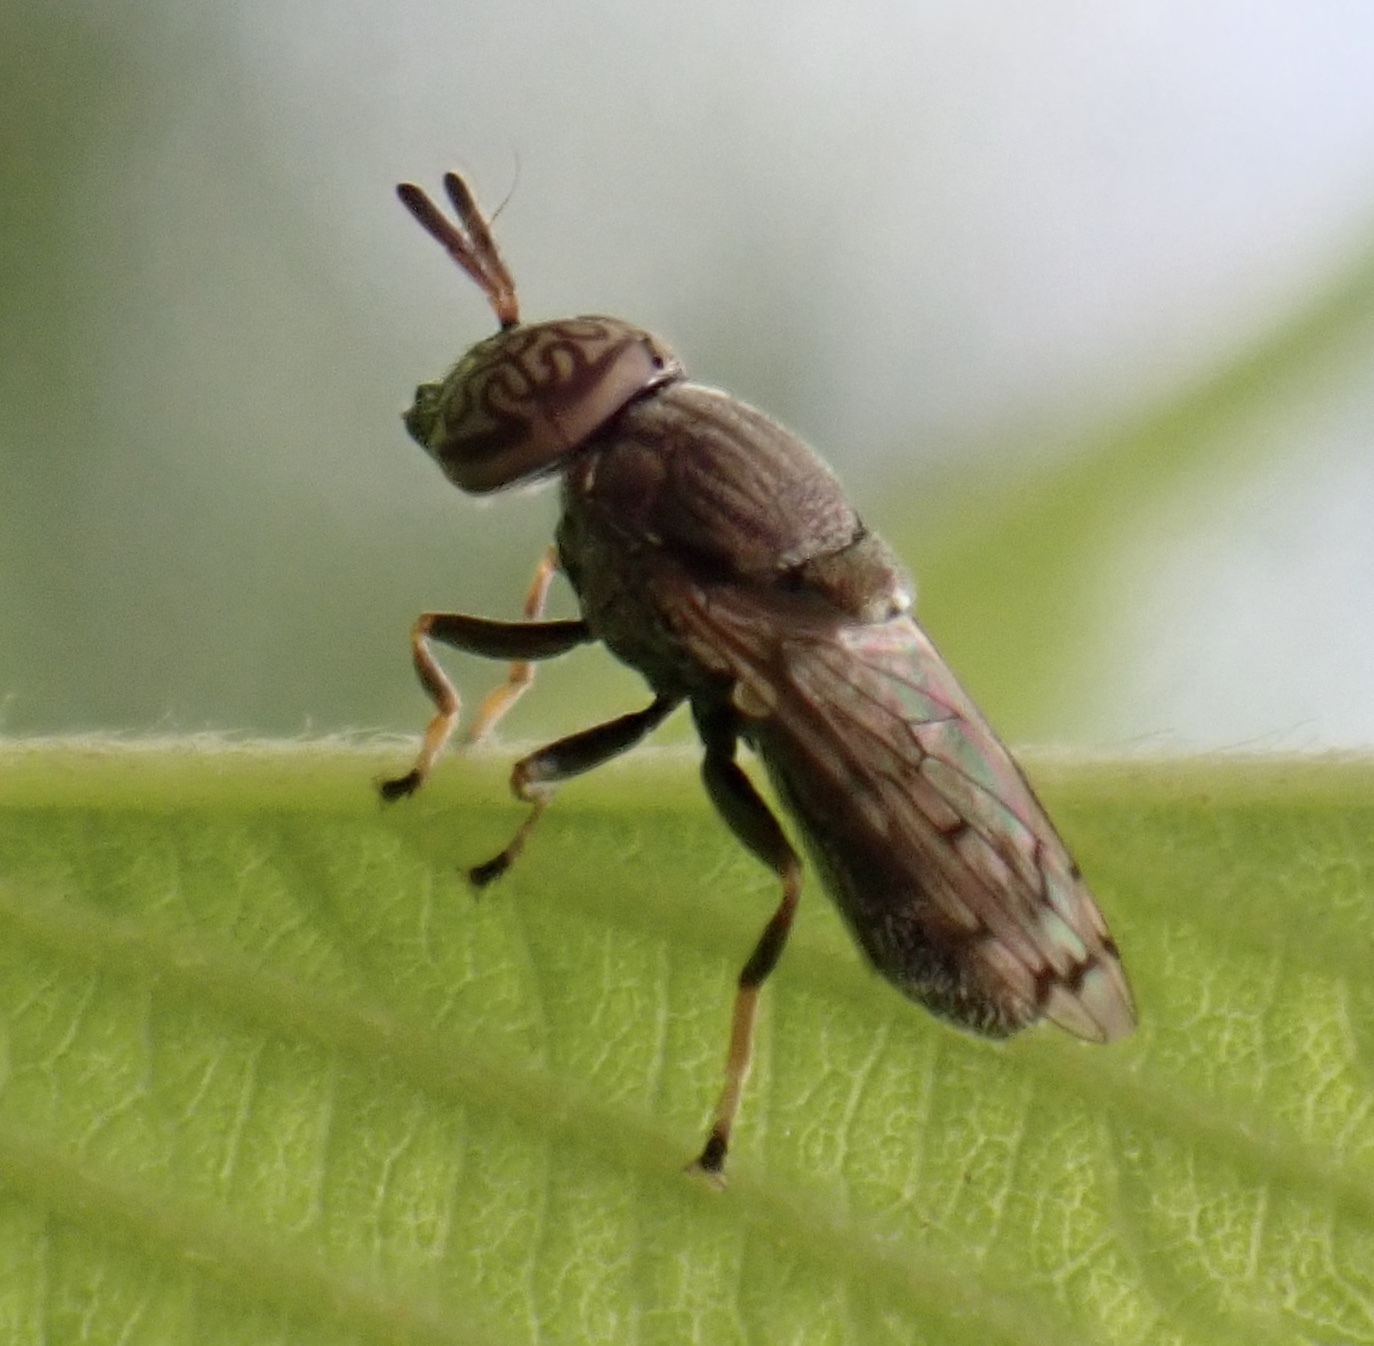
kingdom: Animalia
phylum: Arthropoda
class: Insecta
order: Diptera
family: Syrphidae
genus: Orthonevra
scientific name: Orthonevra nitida
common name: Wavy mucksucker
